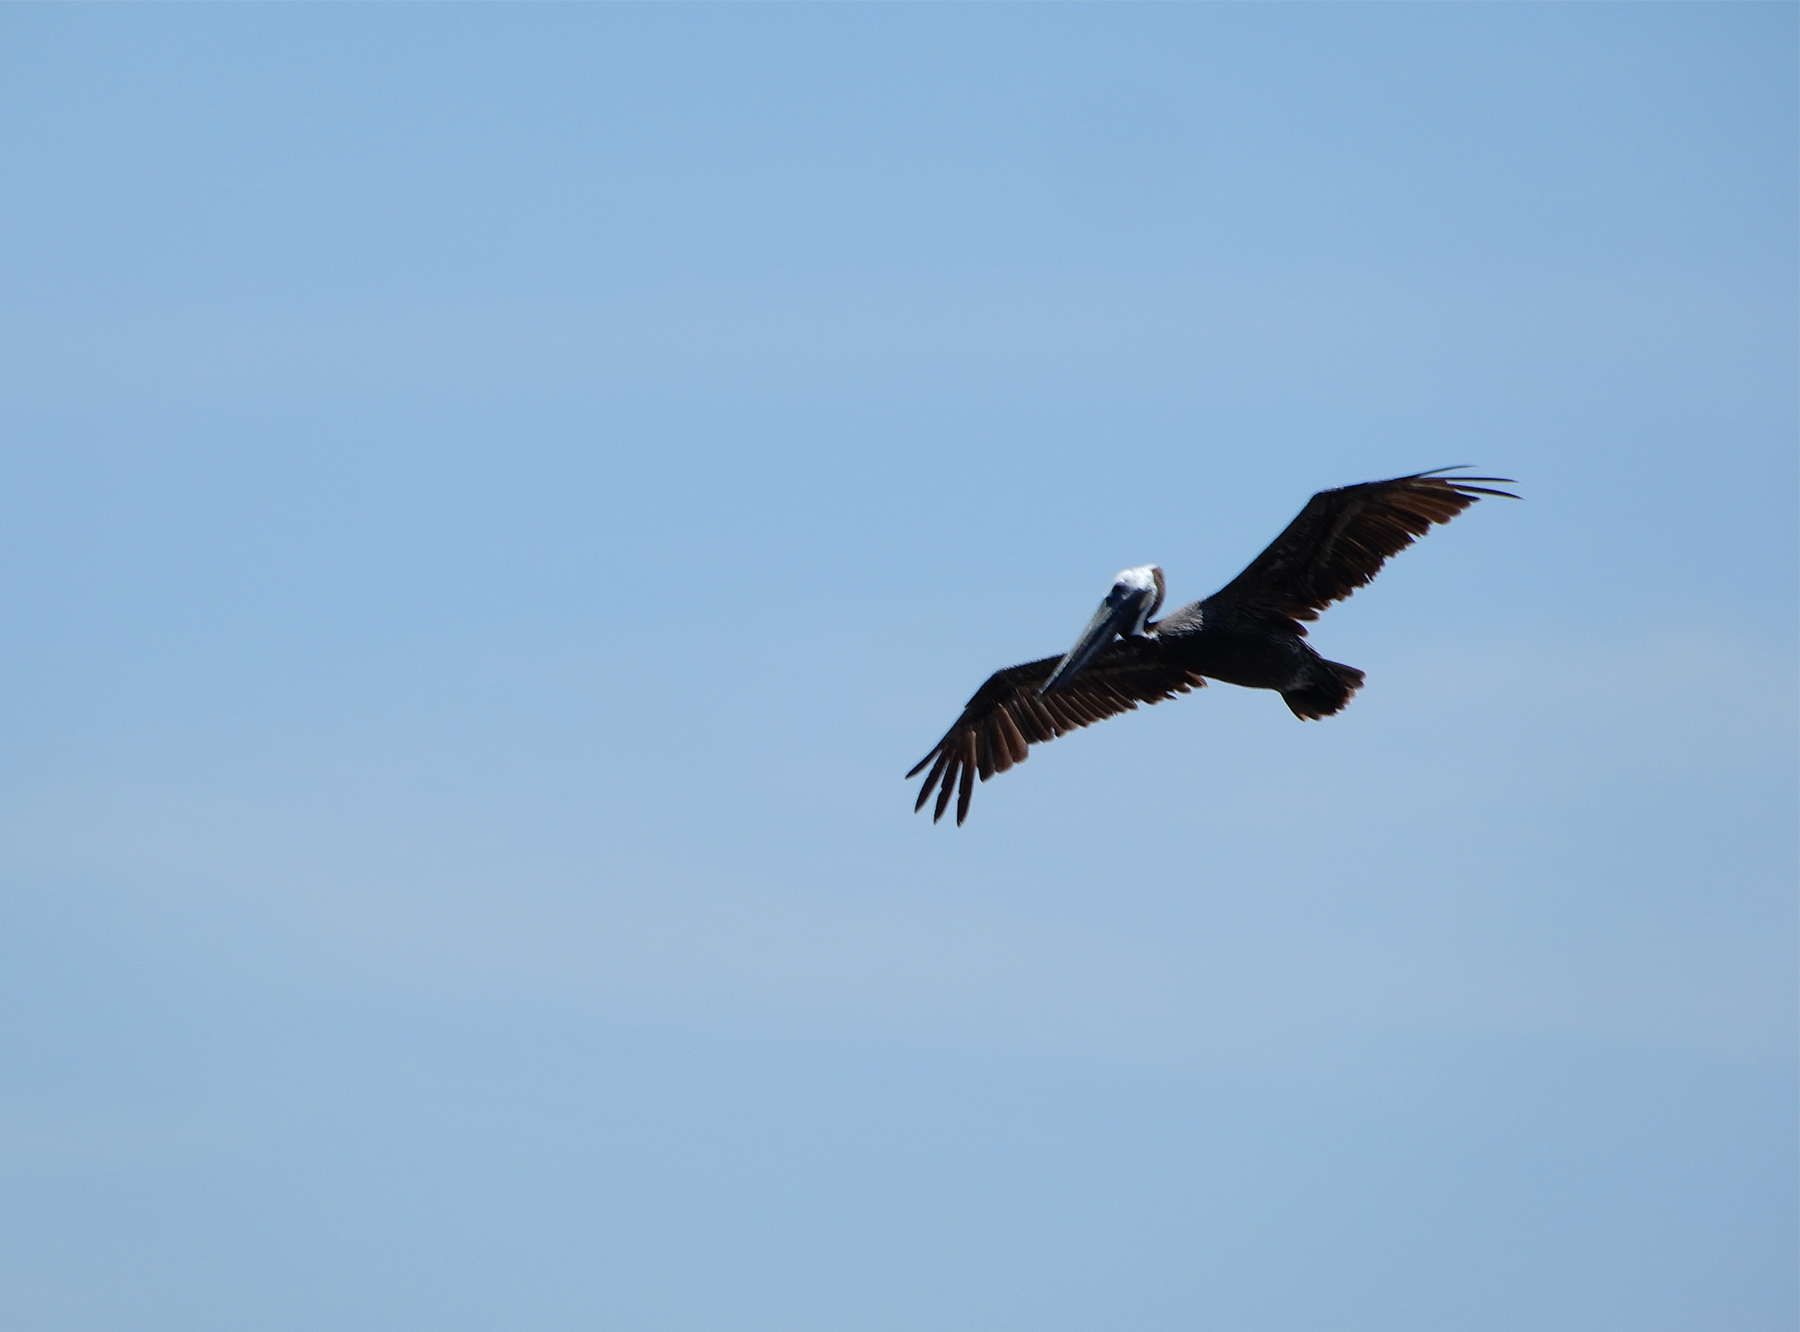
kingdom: Animalia
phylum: Chordata
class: Aves
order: Pelecaniformes
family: Pelecanidae
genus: Pelecanus
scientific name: Pelecanus occidentalis
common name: Brown pelican
